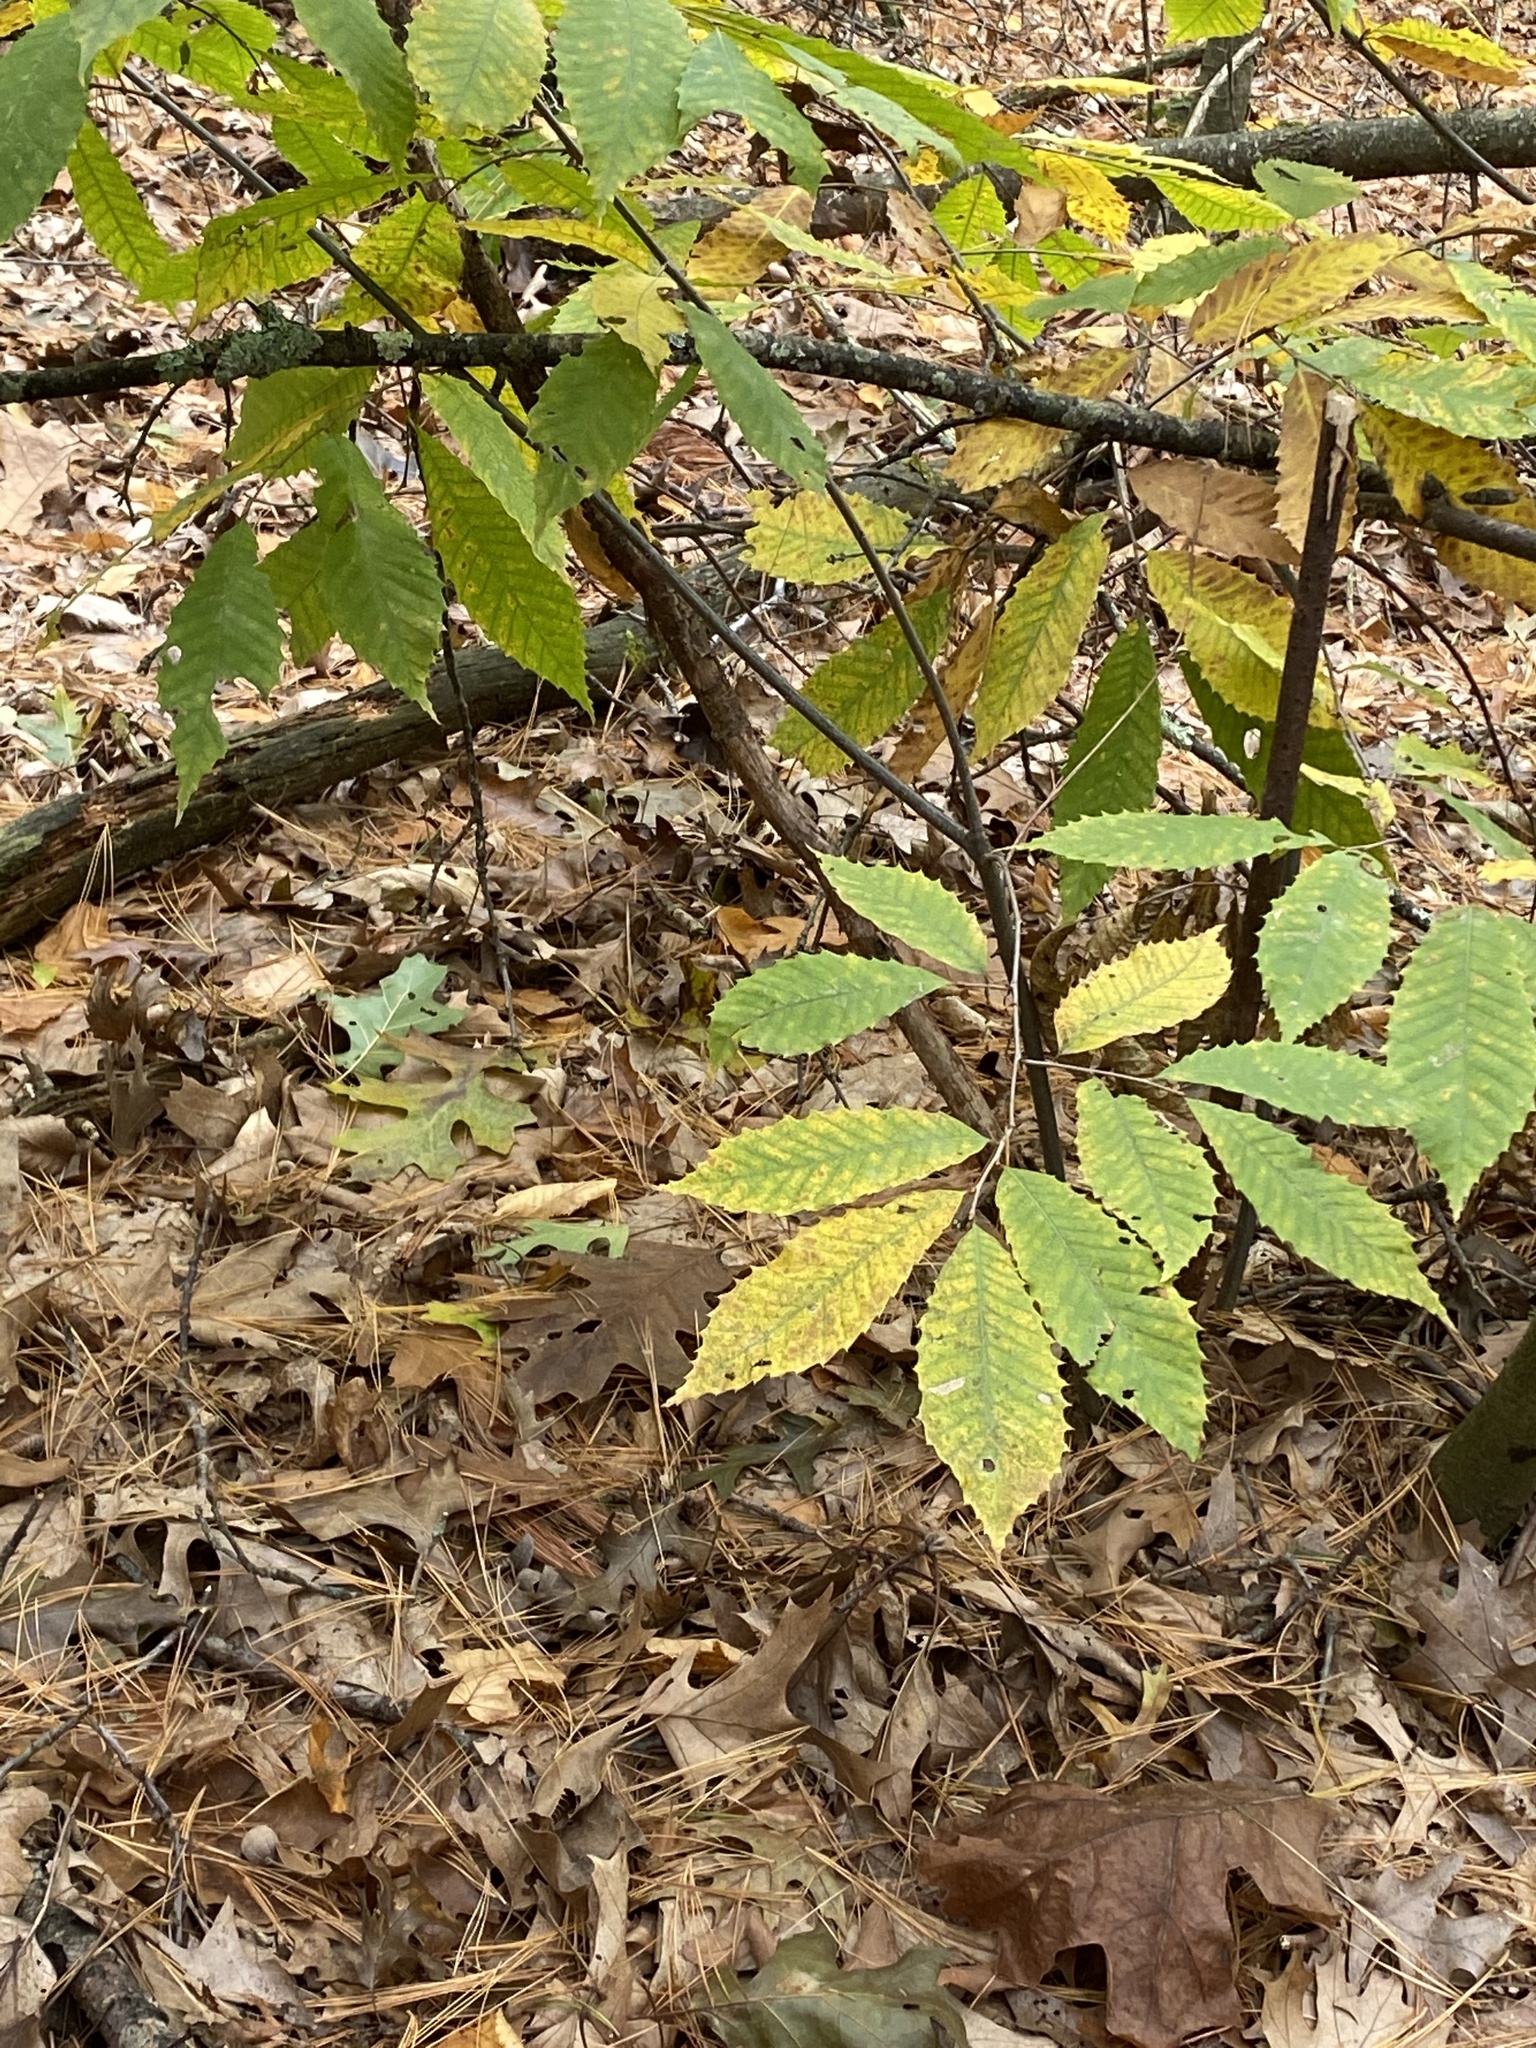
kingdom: Plantae
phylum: Tracheophyta
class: Magnoliopsida
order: Fagales
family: Fagaceae
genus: Castanea
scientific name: Castanea dentata
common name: American chestnut
